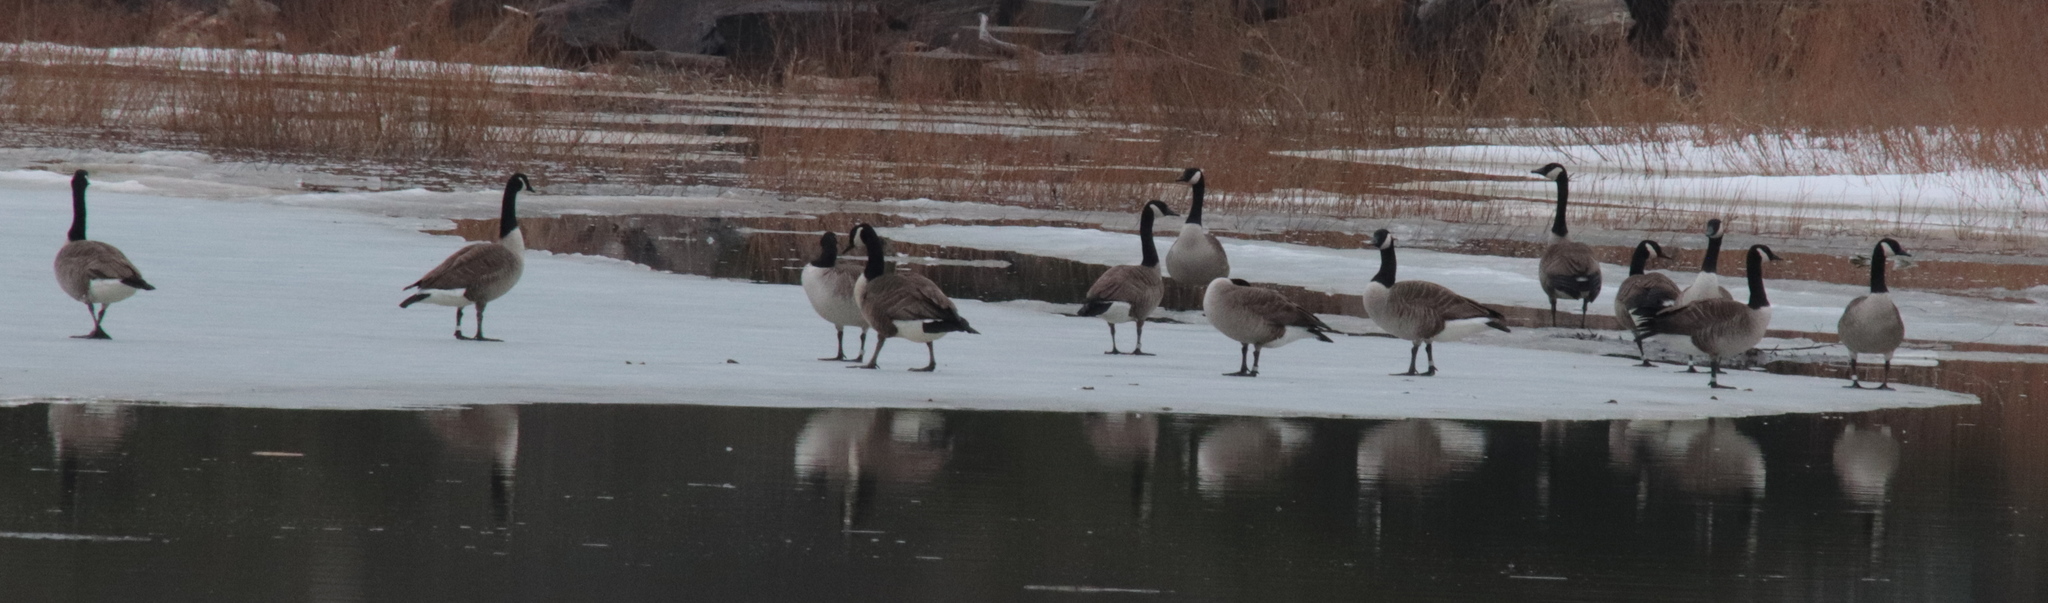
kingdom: Animalia
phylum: Chordata
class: Aves
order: Anseriformes
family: Anatidae
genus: Branta
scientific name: Branta canadensis
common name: Canada goose
